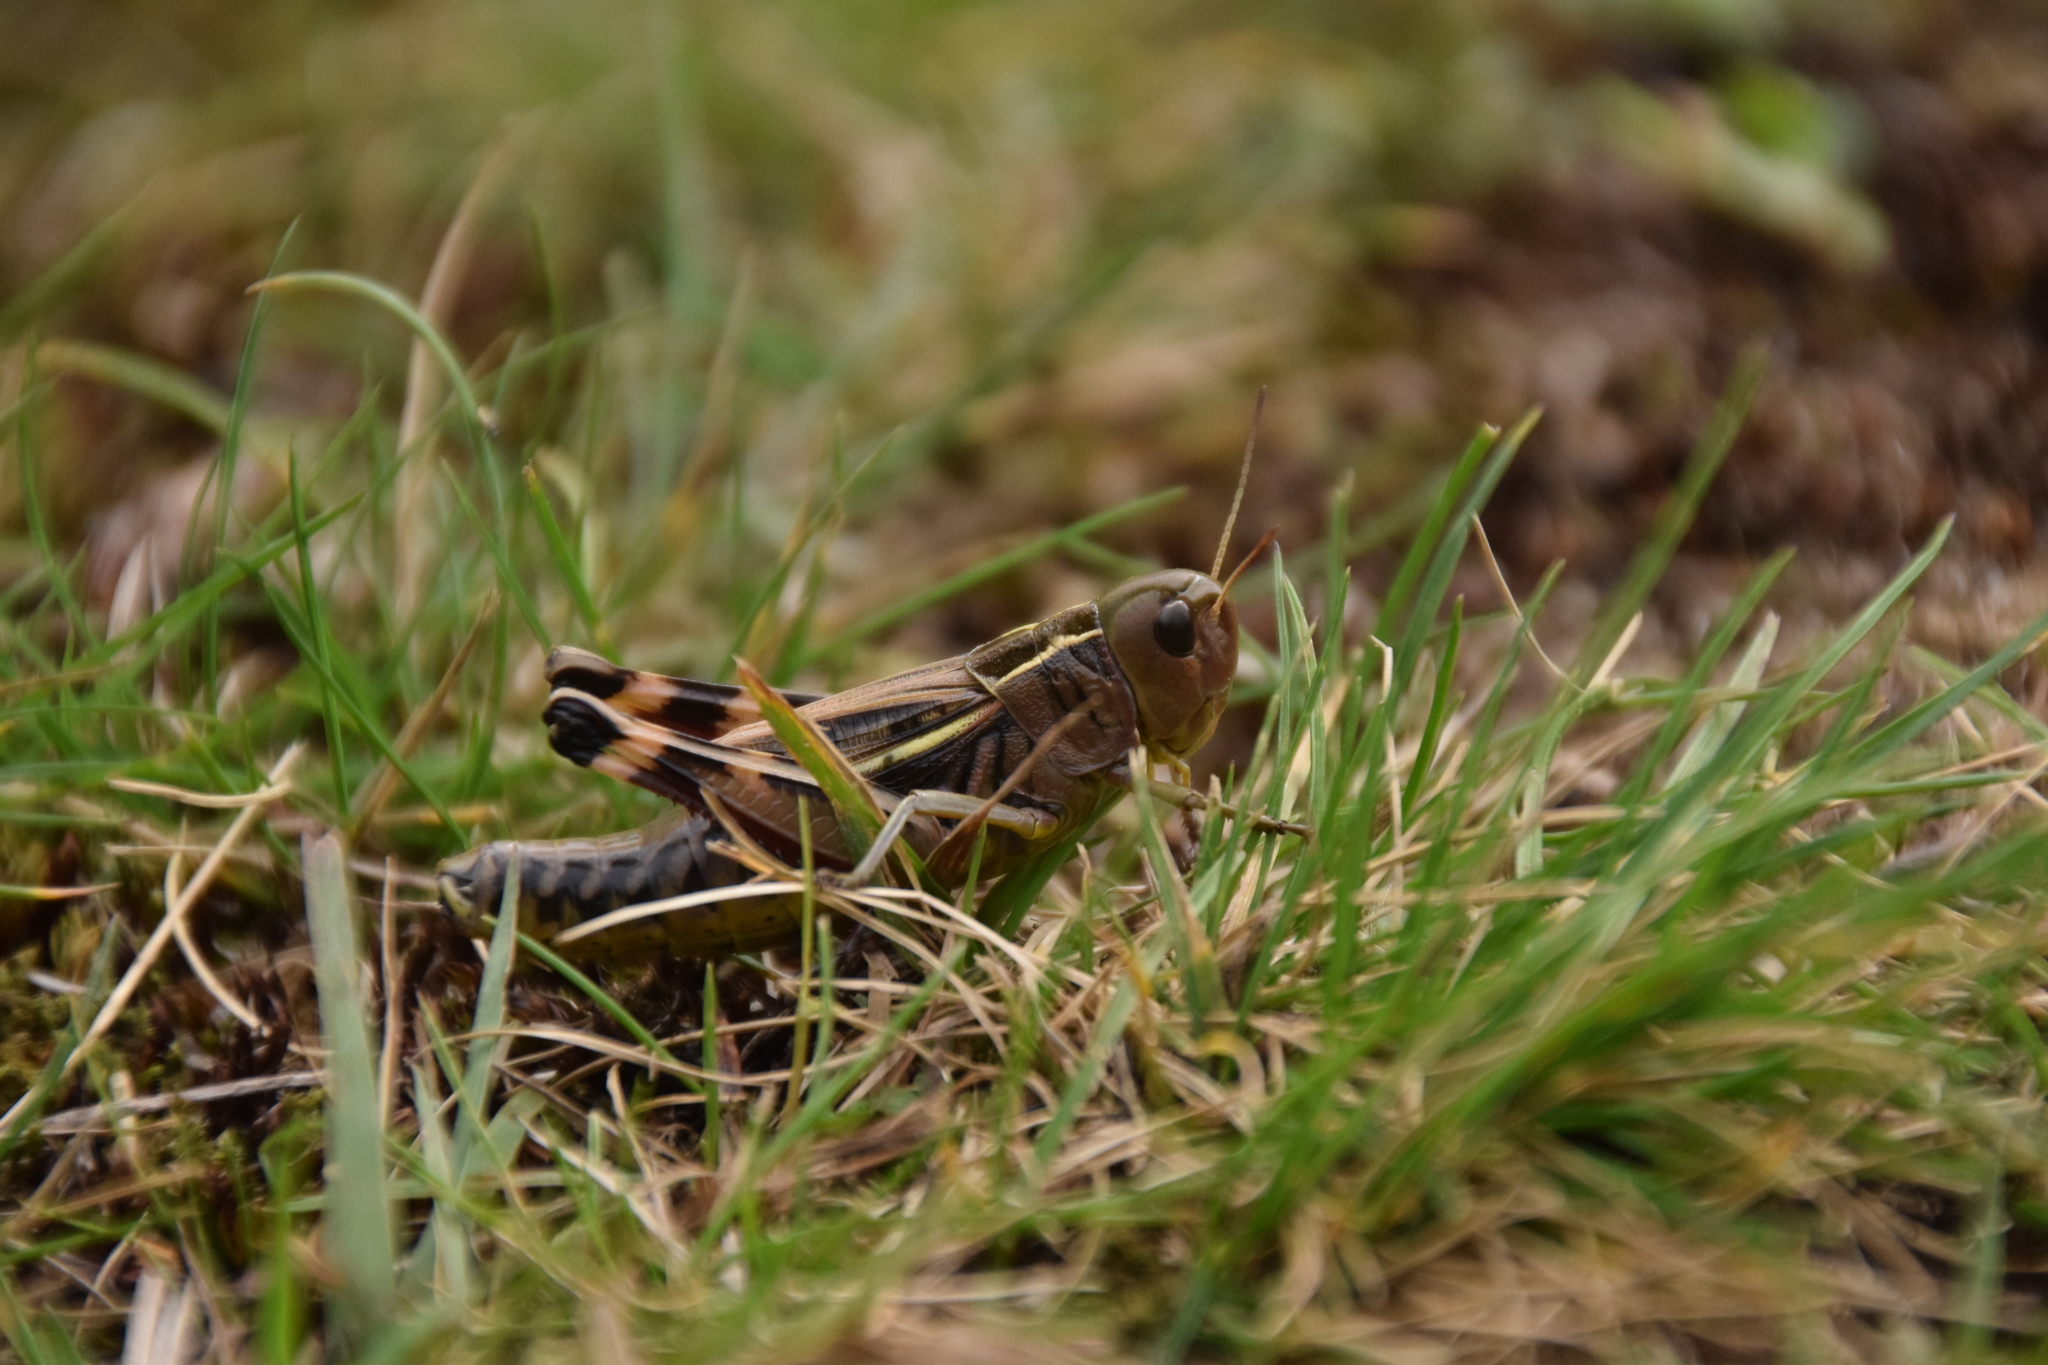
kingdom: Animalia
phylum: Arthropoda
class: Insecta
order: Orthoptera
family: Acrididae
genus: Arcyptera
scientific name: Arcyptera fusca
